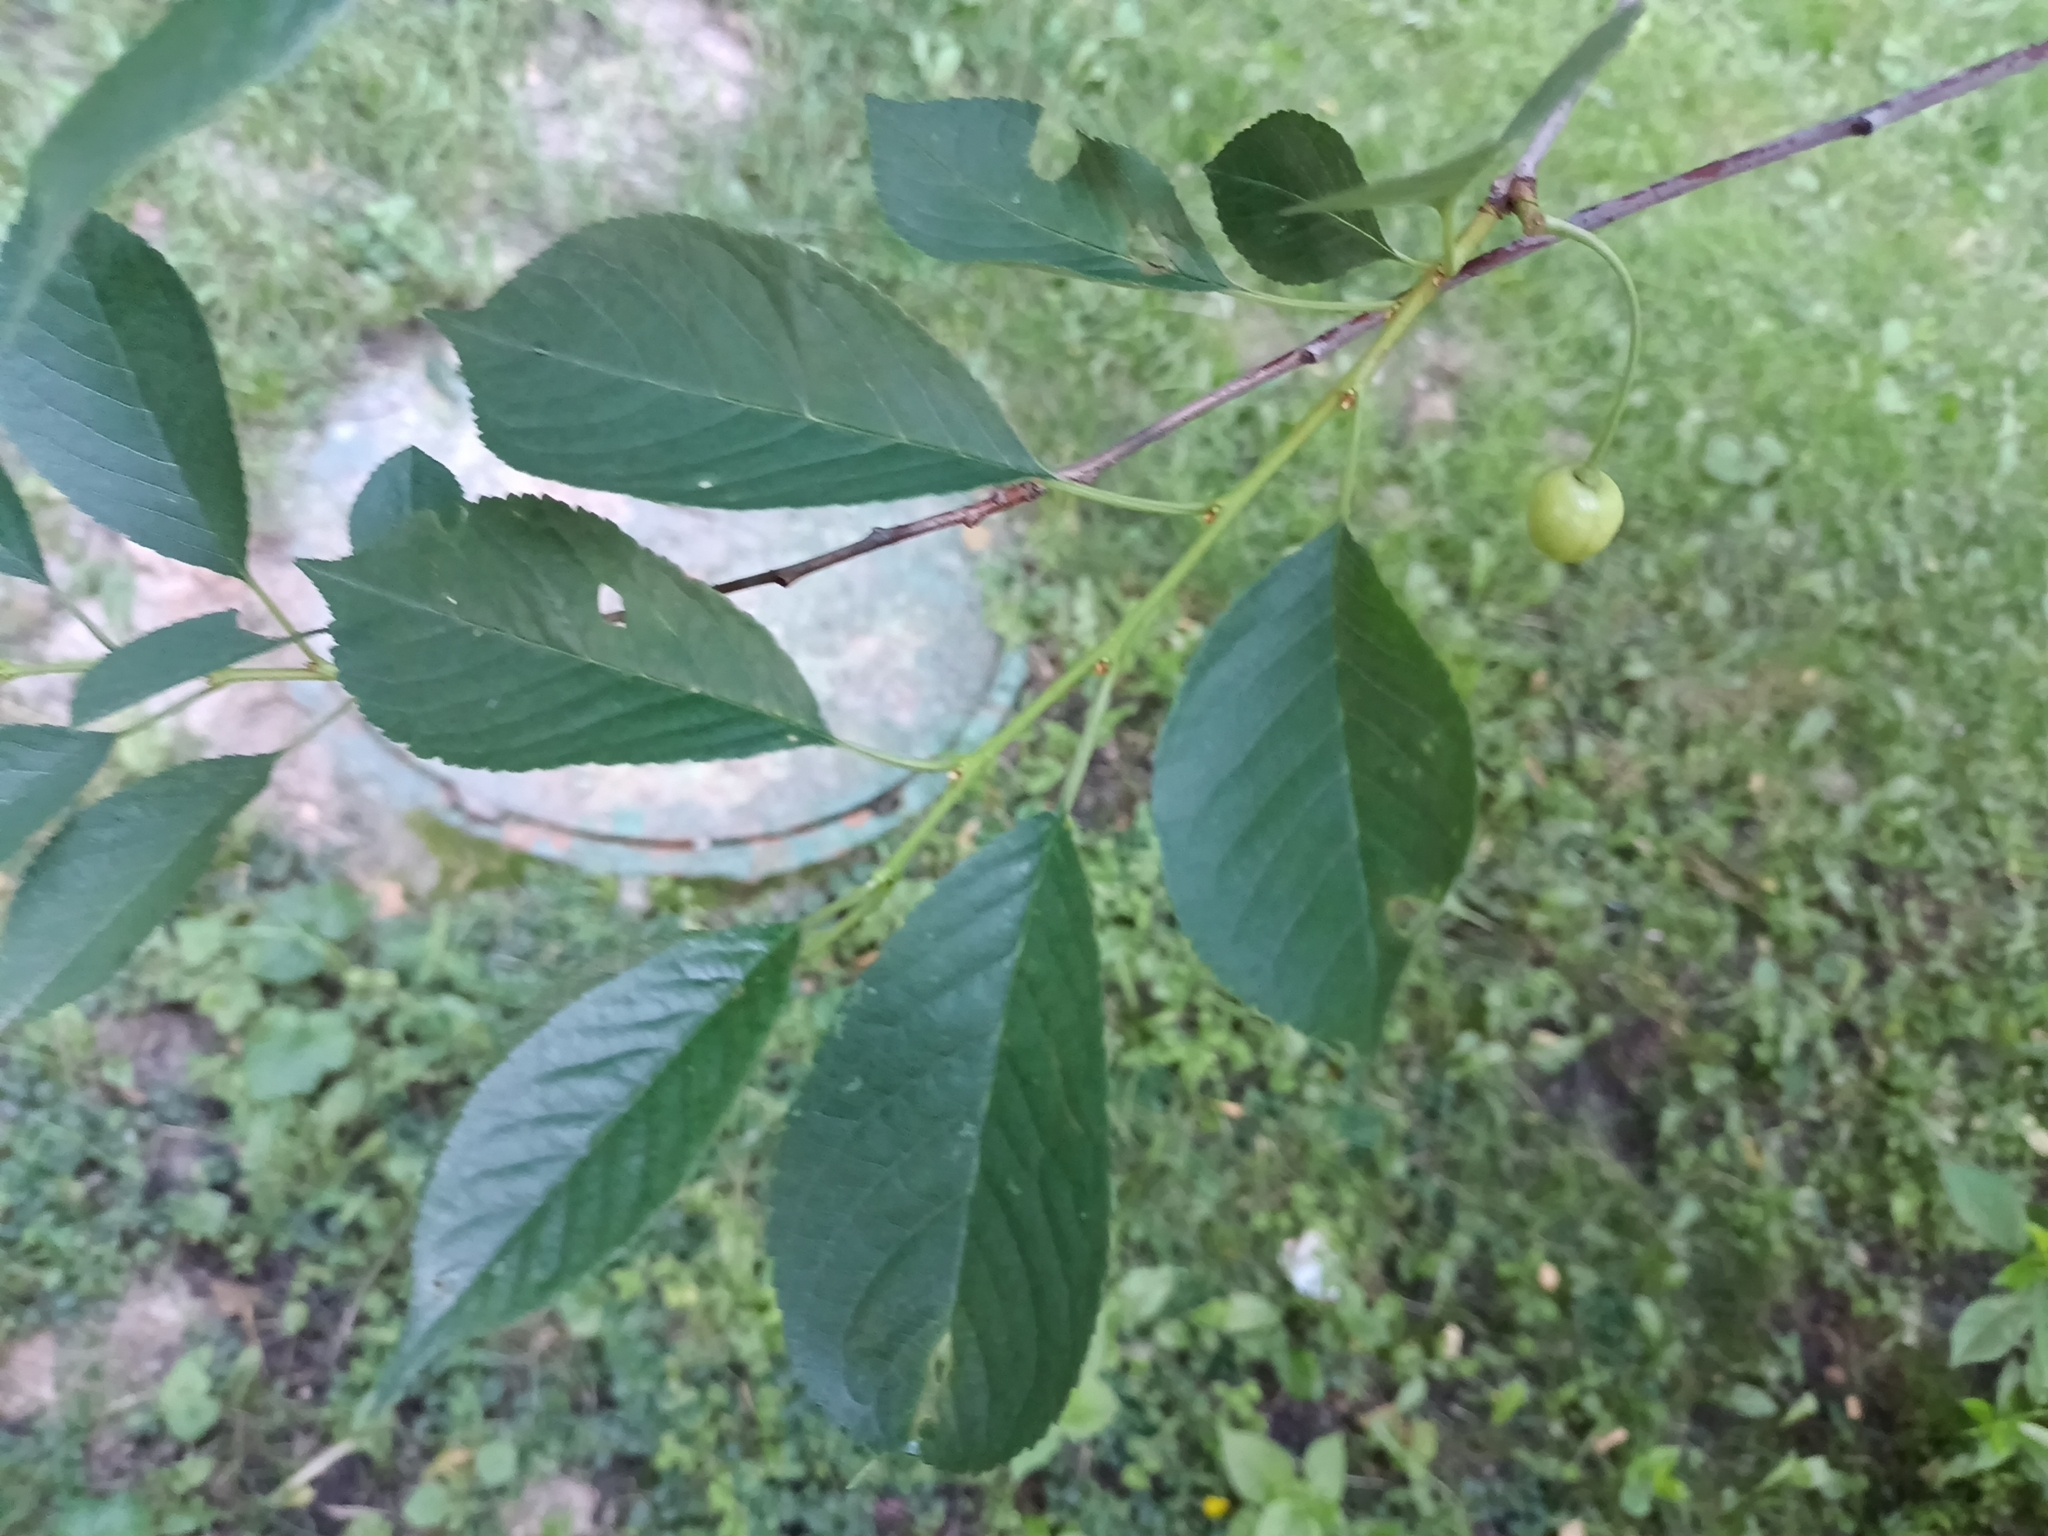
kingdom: Plantae
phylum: Tracheophyta
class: Magnoliopsida
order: Rosales
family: Rosaceae
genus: Prunus
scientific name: Prunus cerasus
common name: Morello cherry
